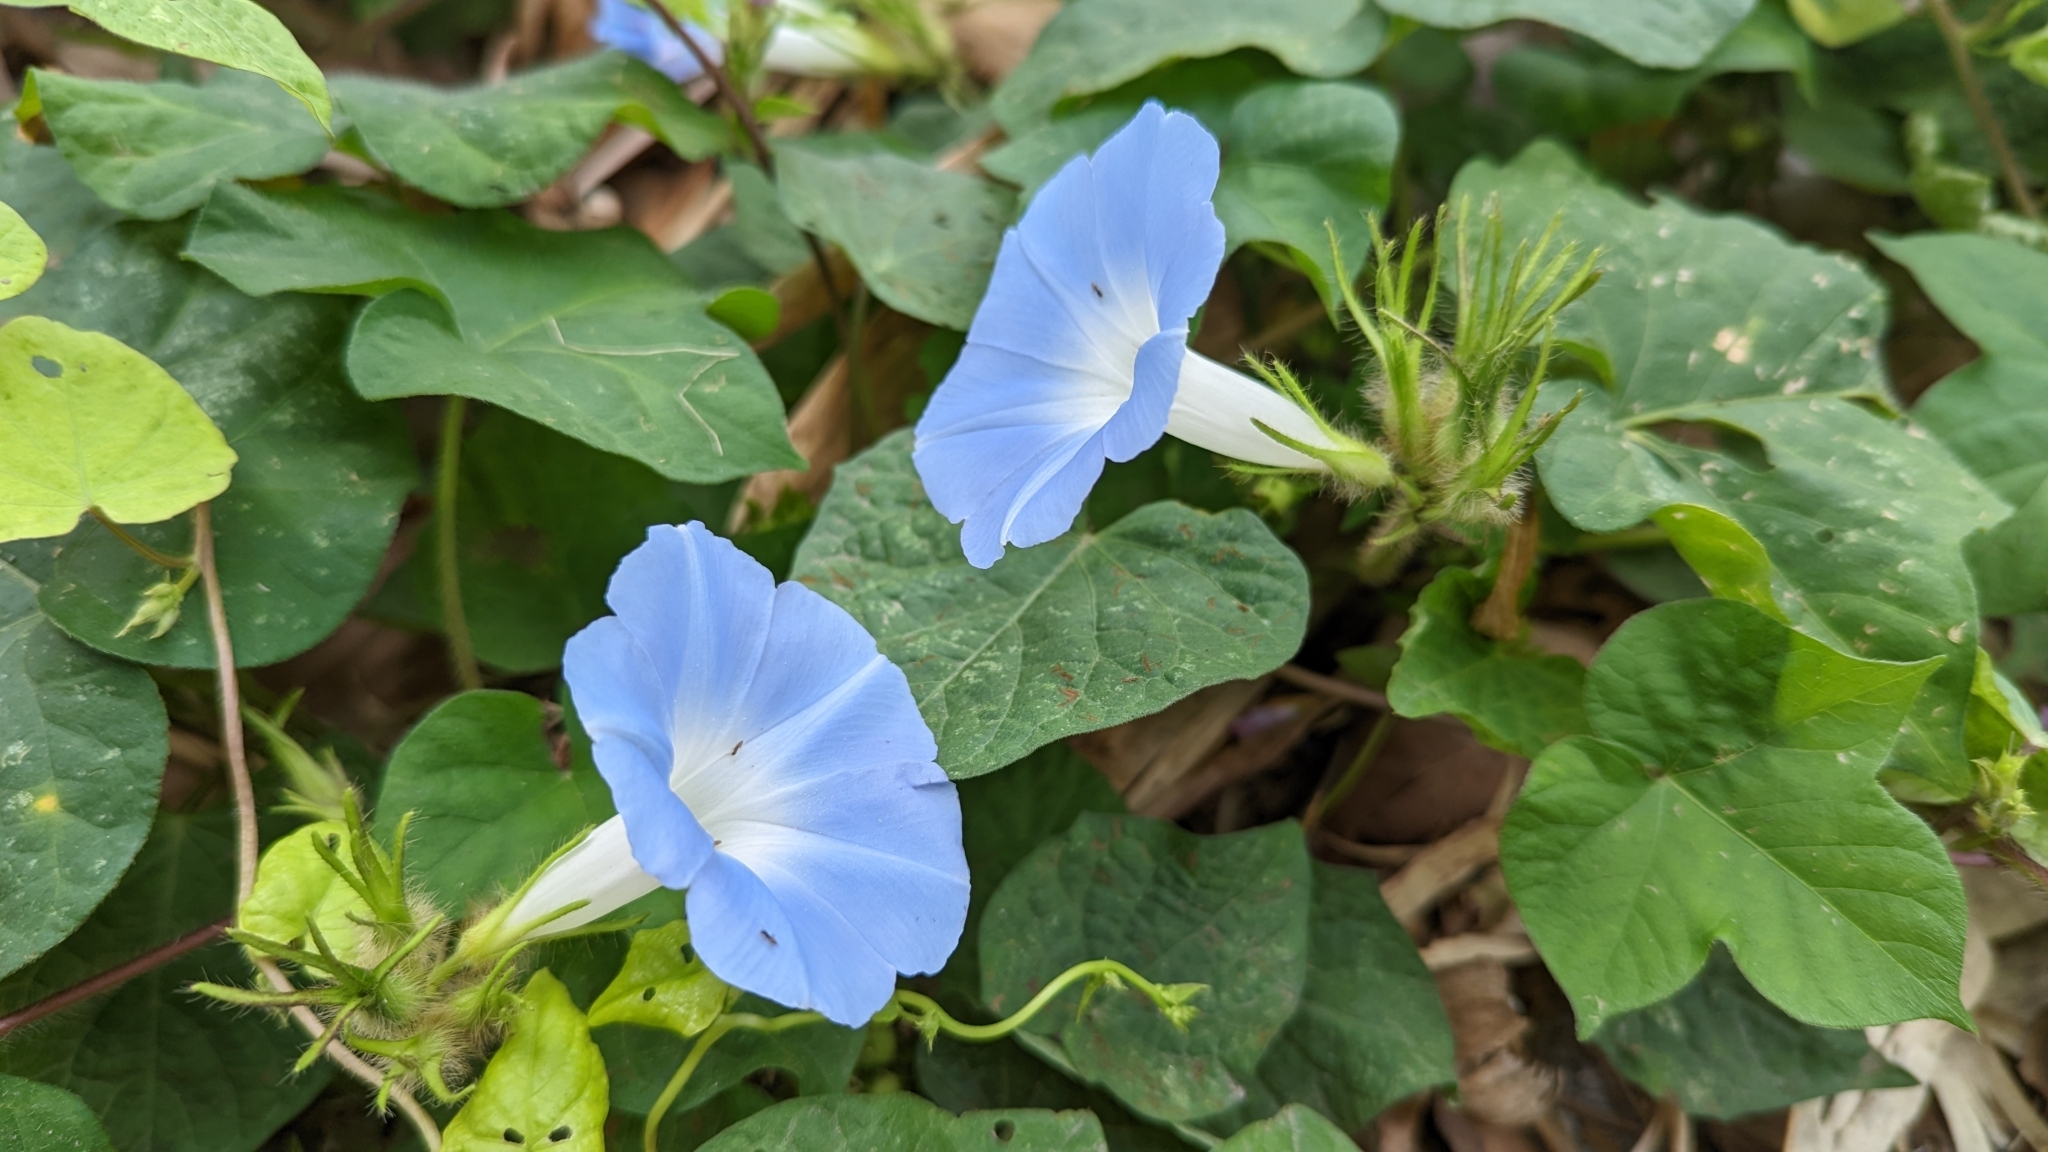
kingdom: Plantae
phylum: Tracheophyta
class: Magnoliopsida
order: Solanales
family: Convolvulaceae
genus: Ipomoea
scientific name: Ipomoea nil
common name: Japanese morning-glory
